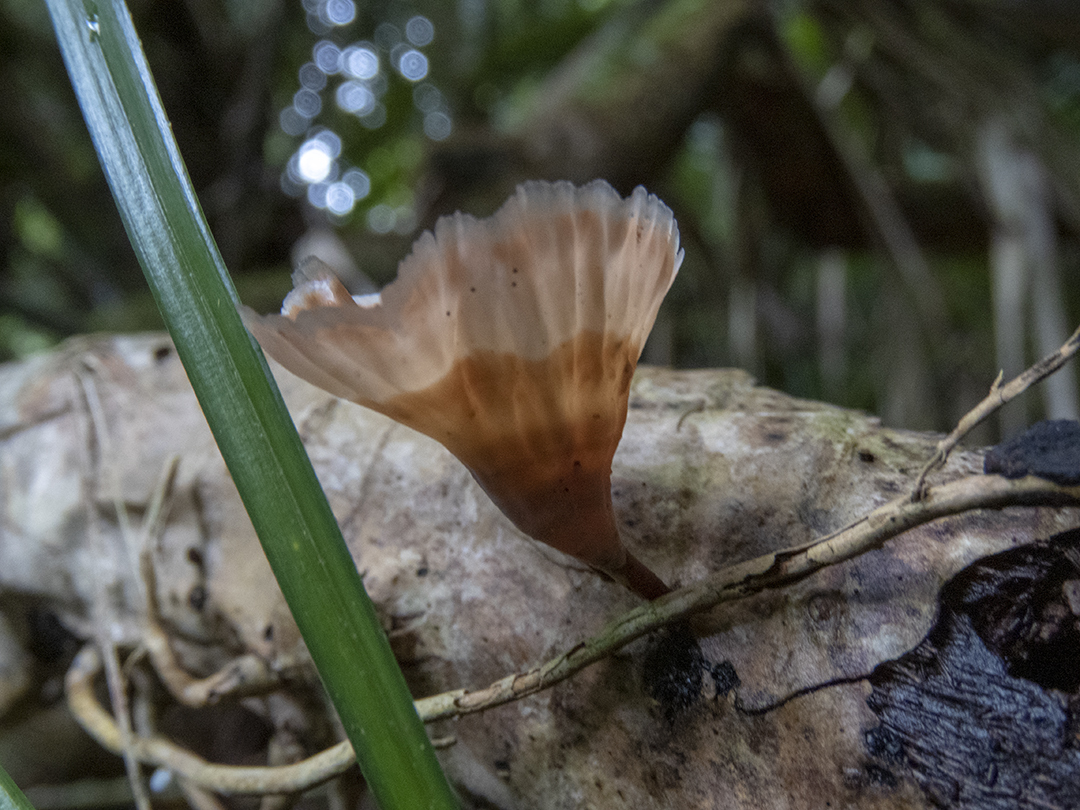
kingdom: Fungi
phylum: Basidiomycota
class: Agaricomycetes
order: Polyporales
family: Podoscyphaceae
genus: Podoscypha
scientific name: Podoscypha petalodes
